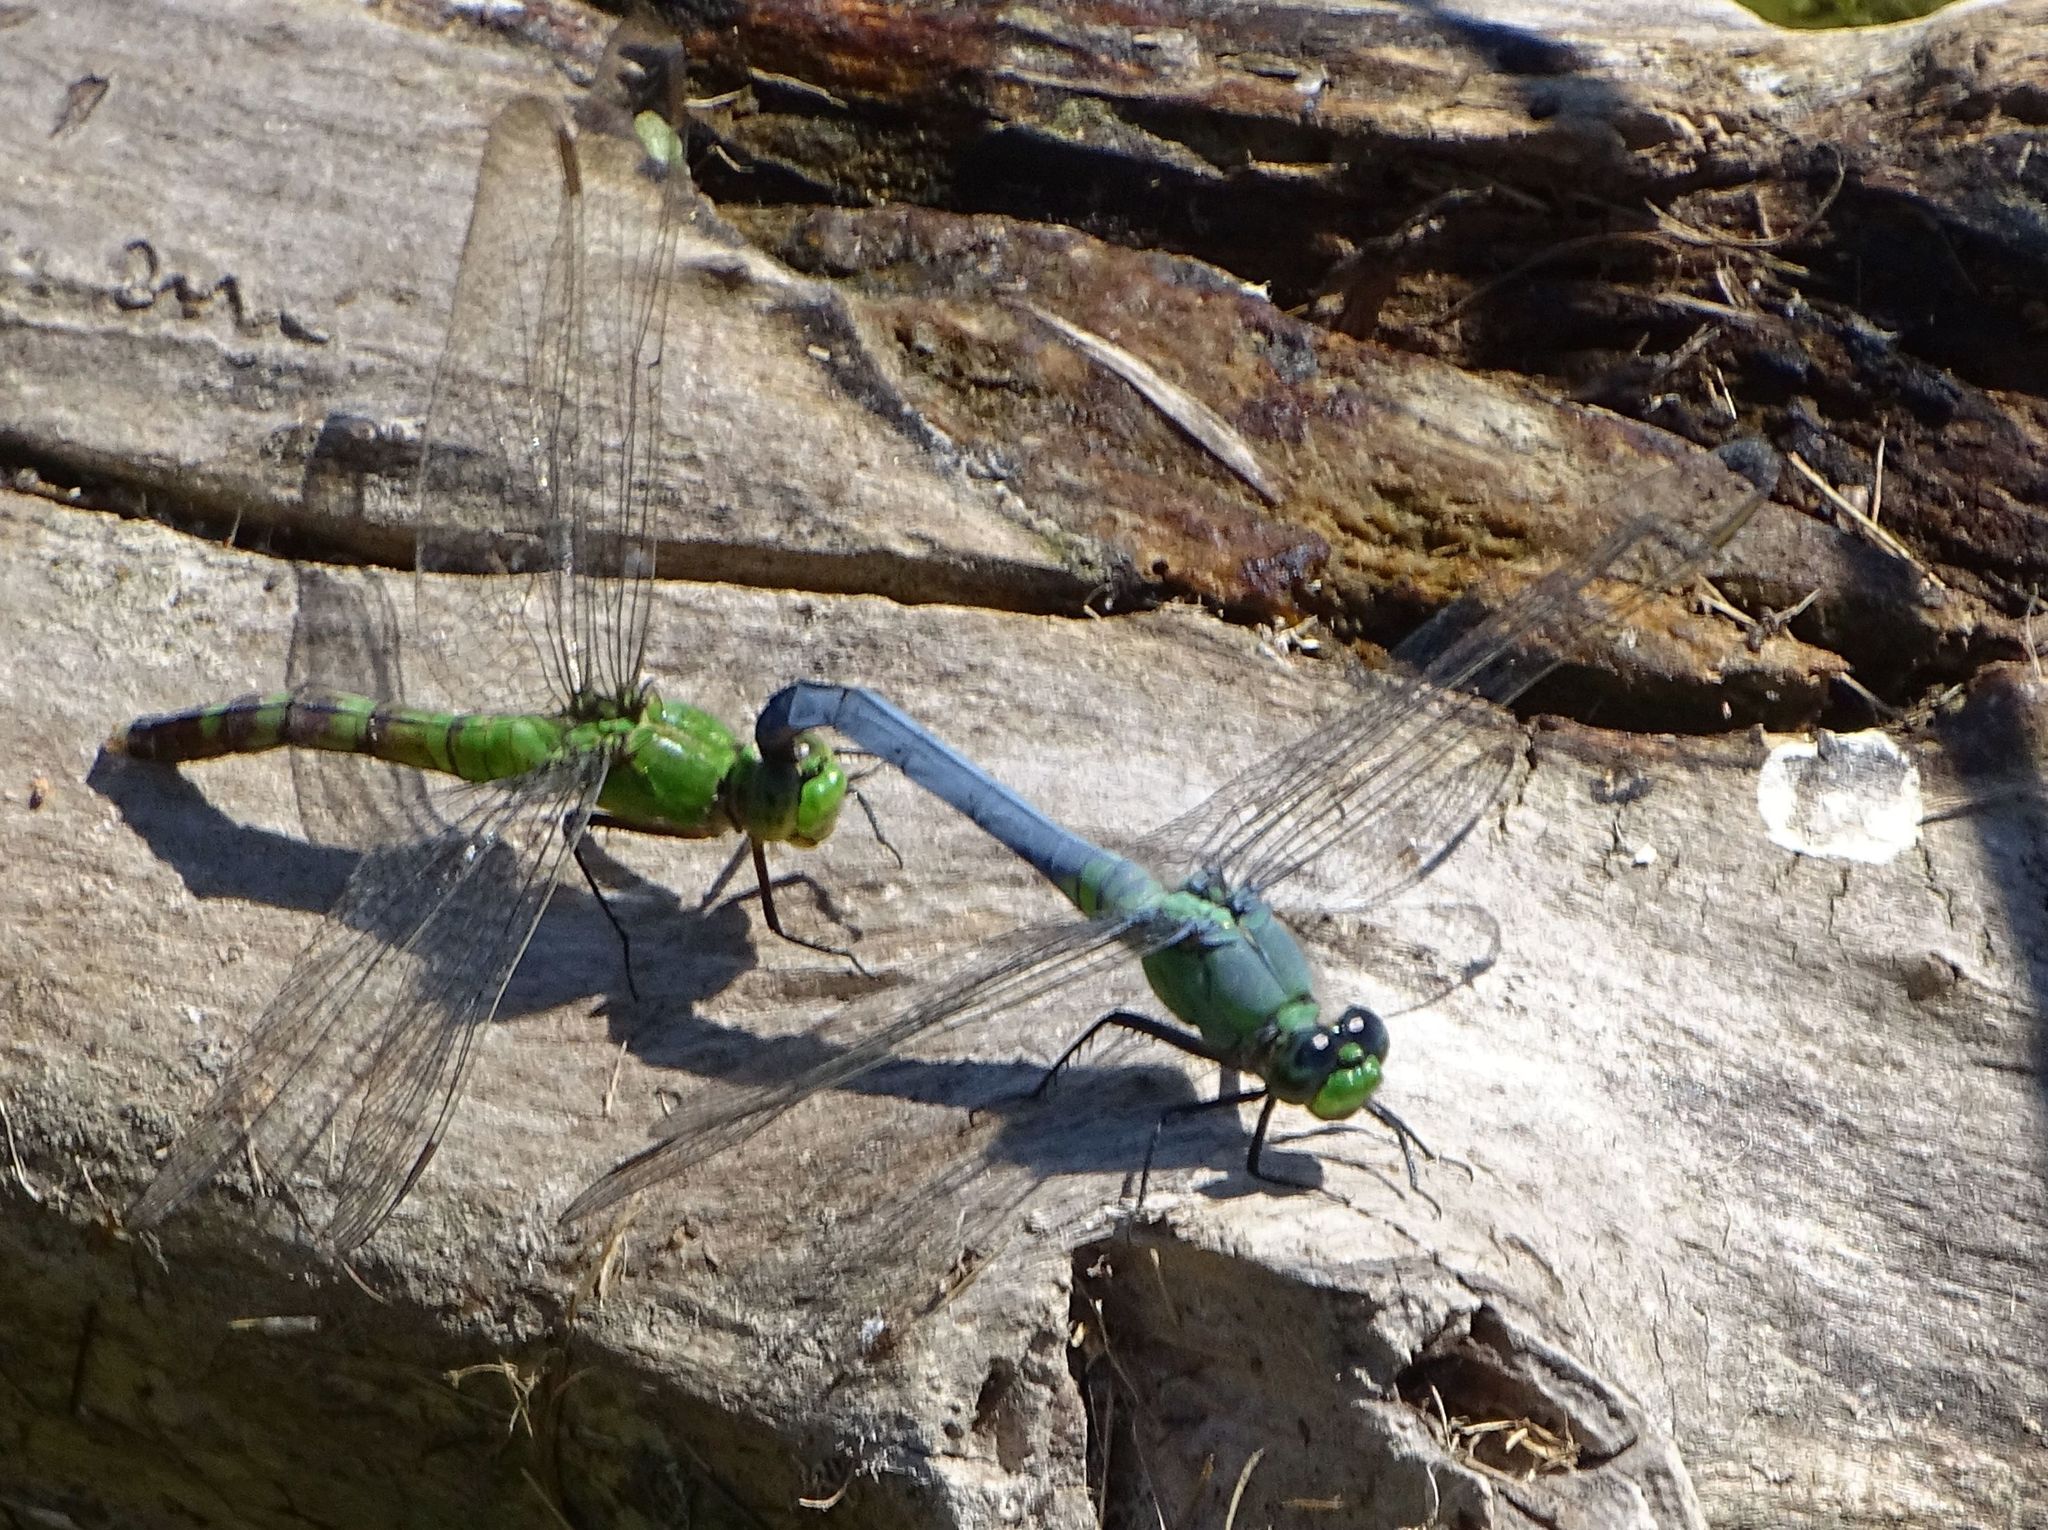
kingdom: Animalia
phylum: Arthropoda
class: Insecta
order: Odonata
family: Libellulidae
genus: Erythemis
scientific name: Erythemis simplicicollis
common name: Eastern pondhawk
